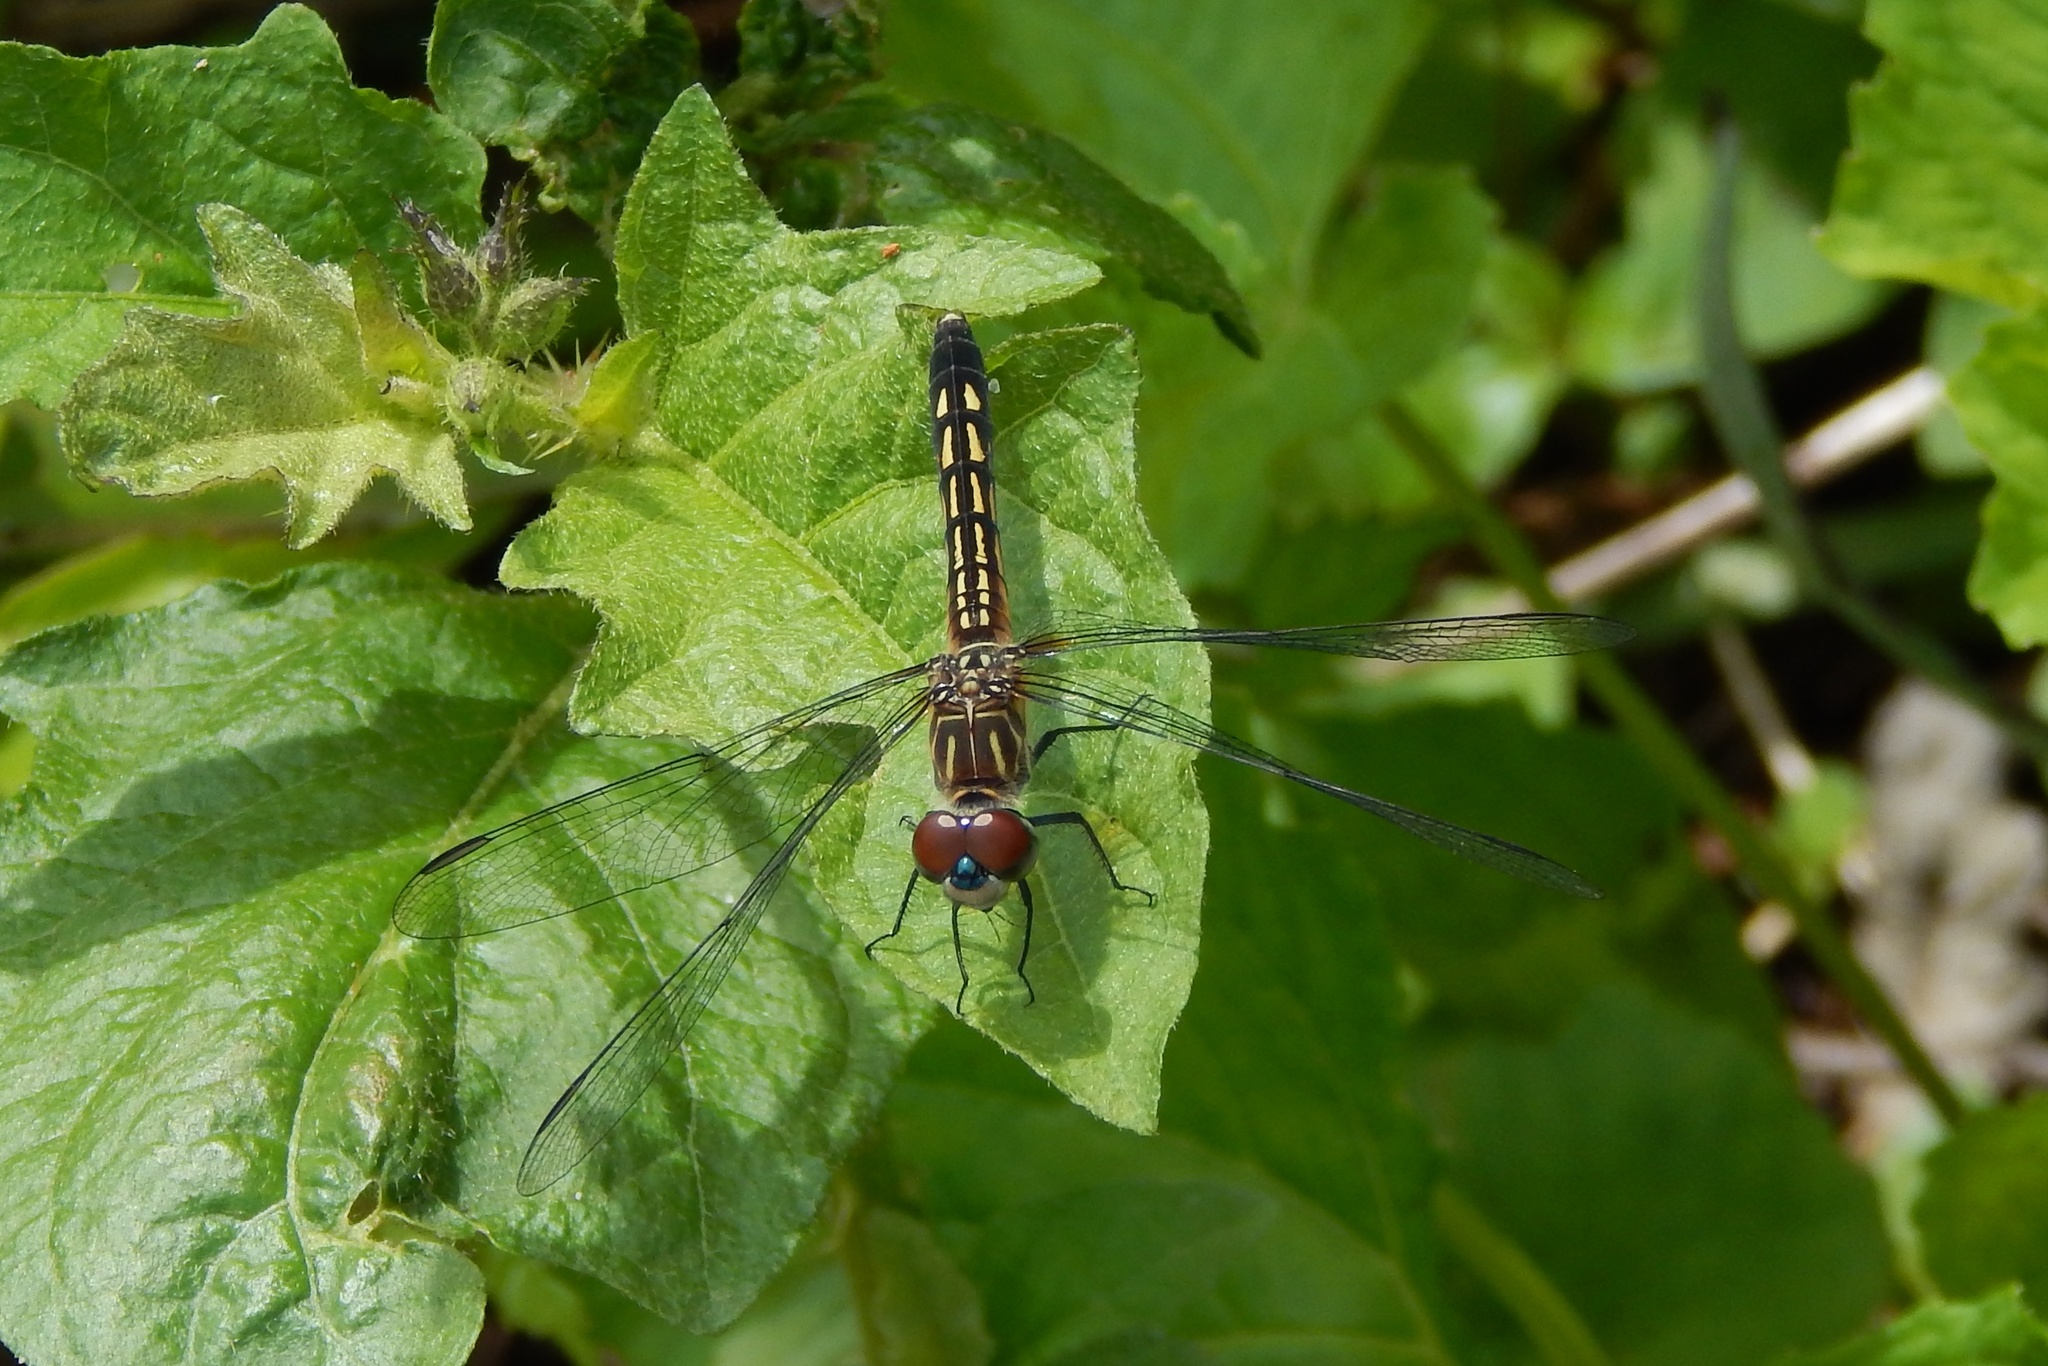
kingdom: Animalia
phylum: Arthropoda
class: Insecta
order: Odonata
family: Libellulidae
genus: Pachydiplax
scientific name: Pachydiplax longipennis
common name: Blue dasher
